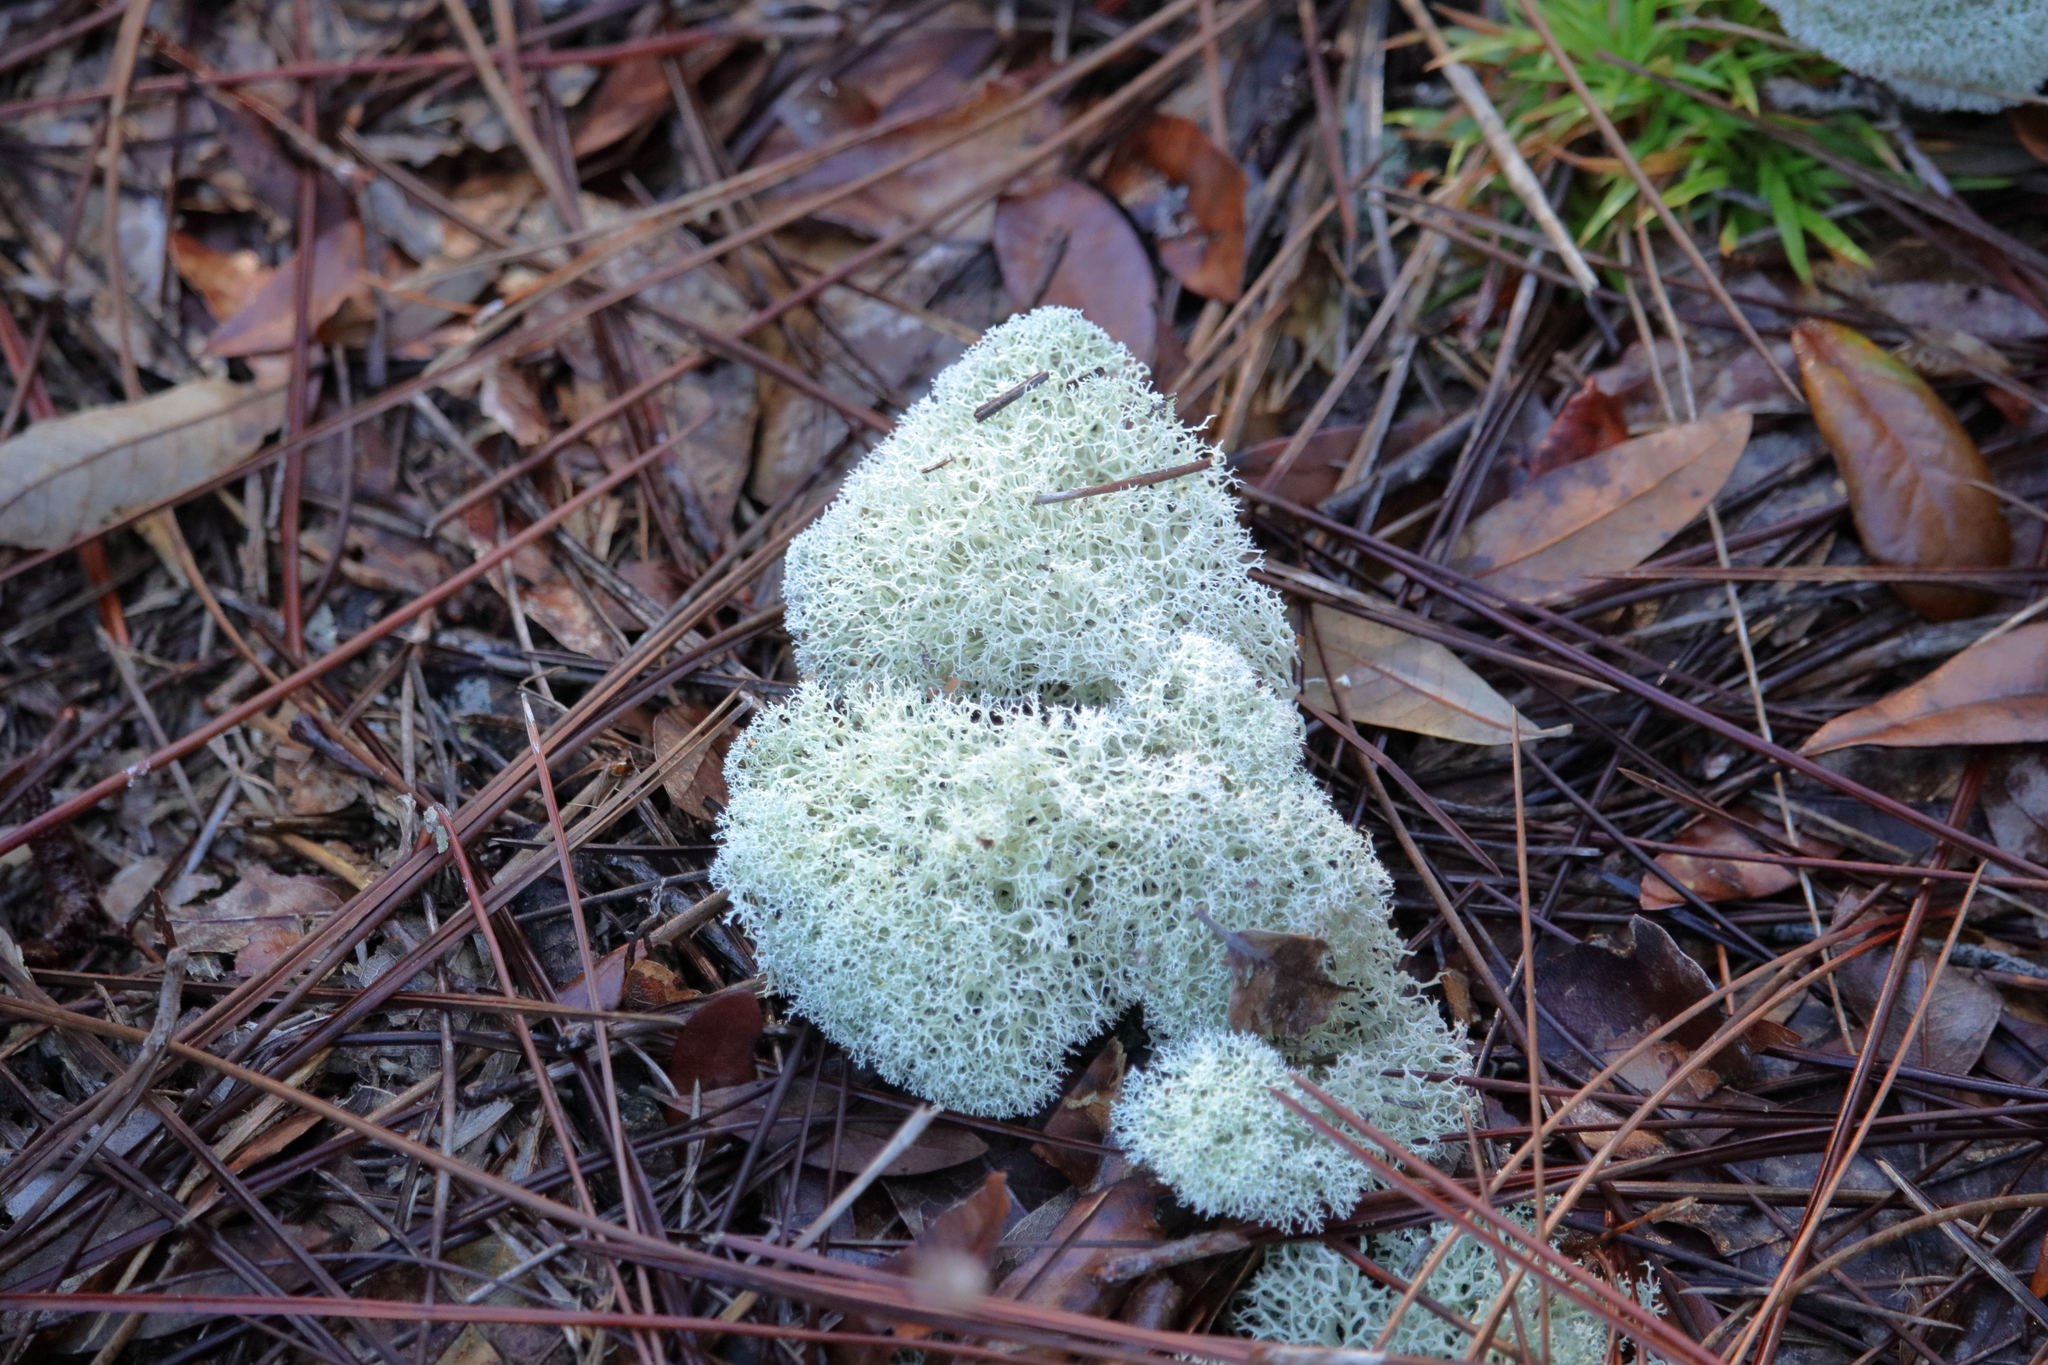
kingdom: Fungi
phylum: Ascomycota
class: Lecanoromycetes
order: Lecanorales
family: Cladoniaceae
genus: Cladonia
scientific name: Cladonia evansii
